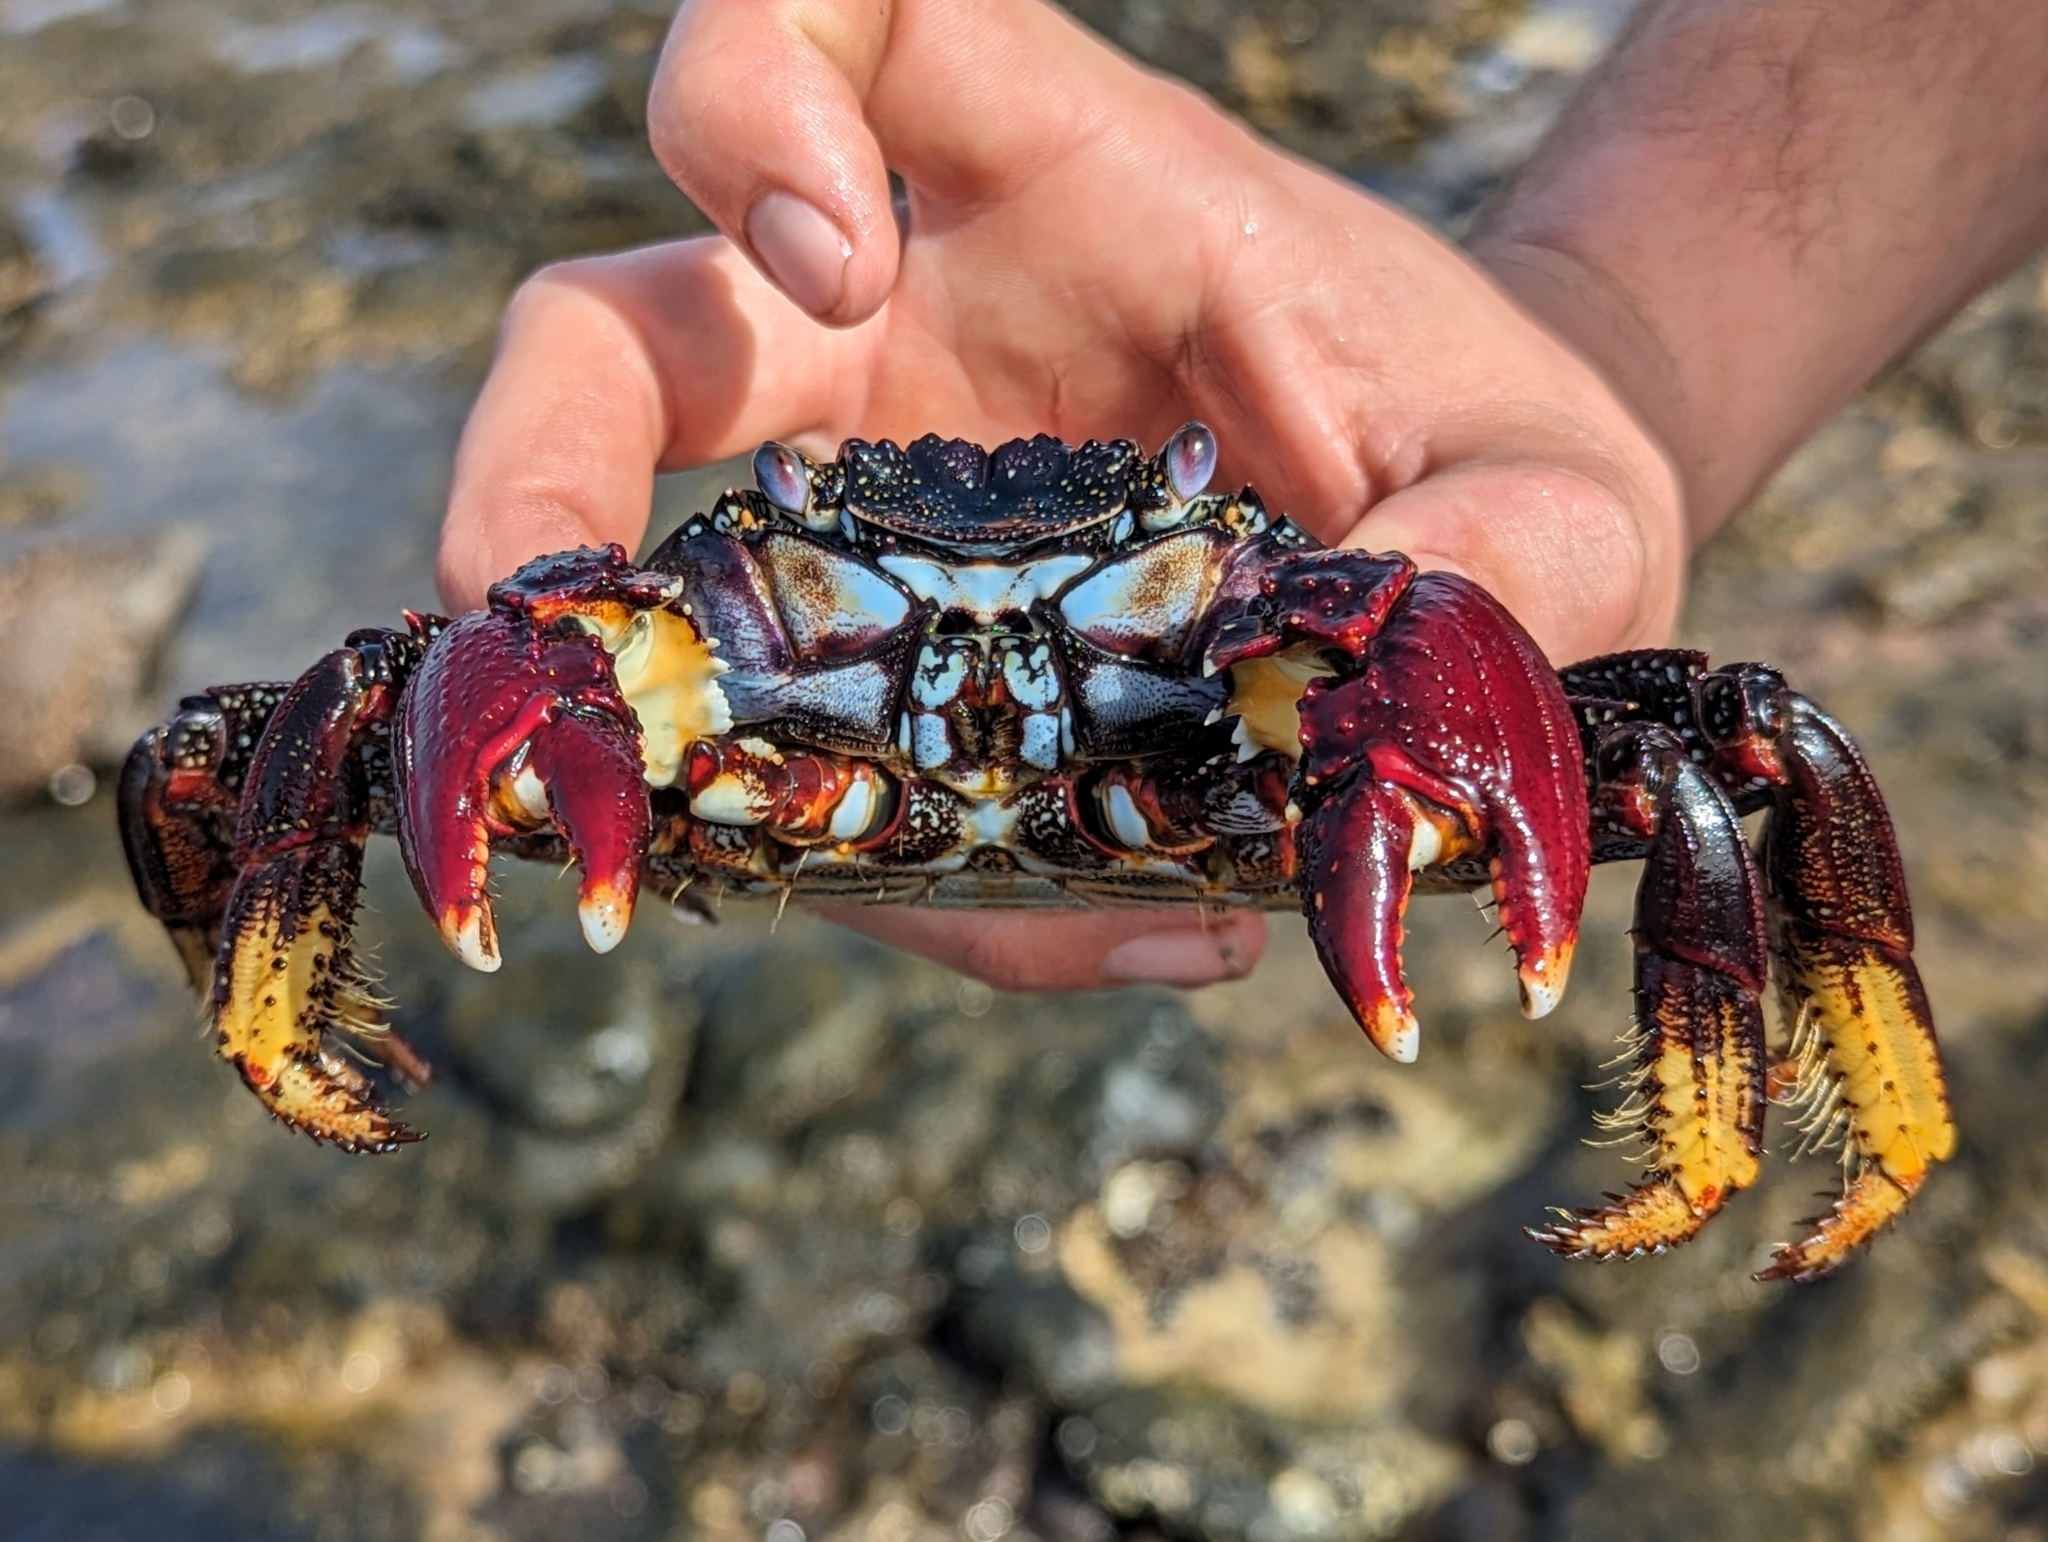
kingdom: Animalia
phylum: Arthropoda
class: Malacostraca
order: Decapoda
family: Grapsidae
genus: Grapsus
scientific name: Grapsus adscensionis
